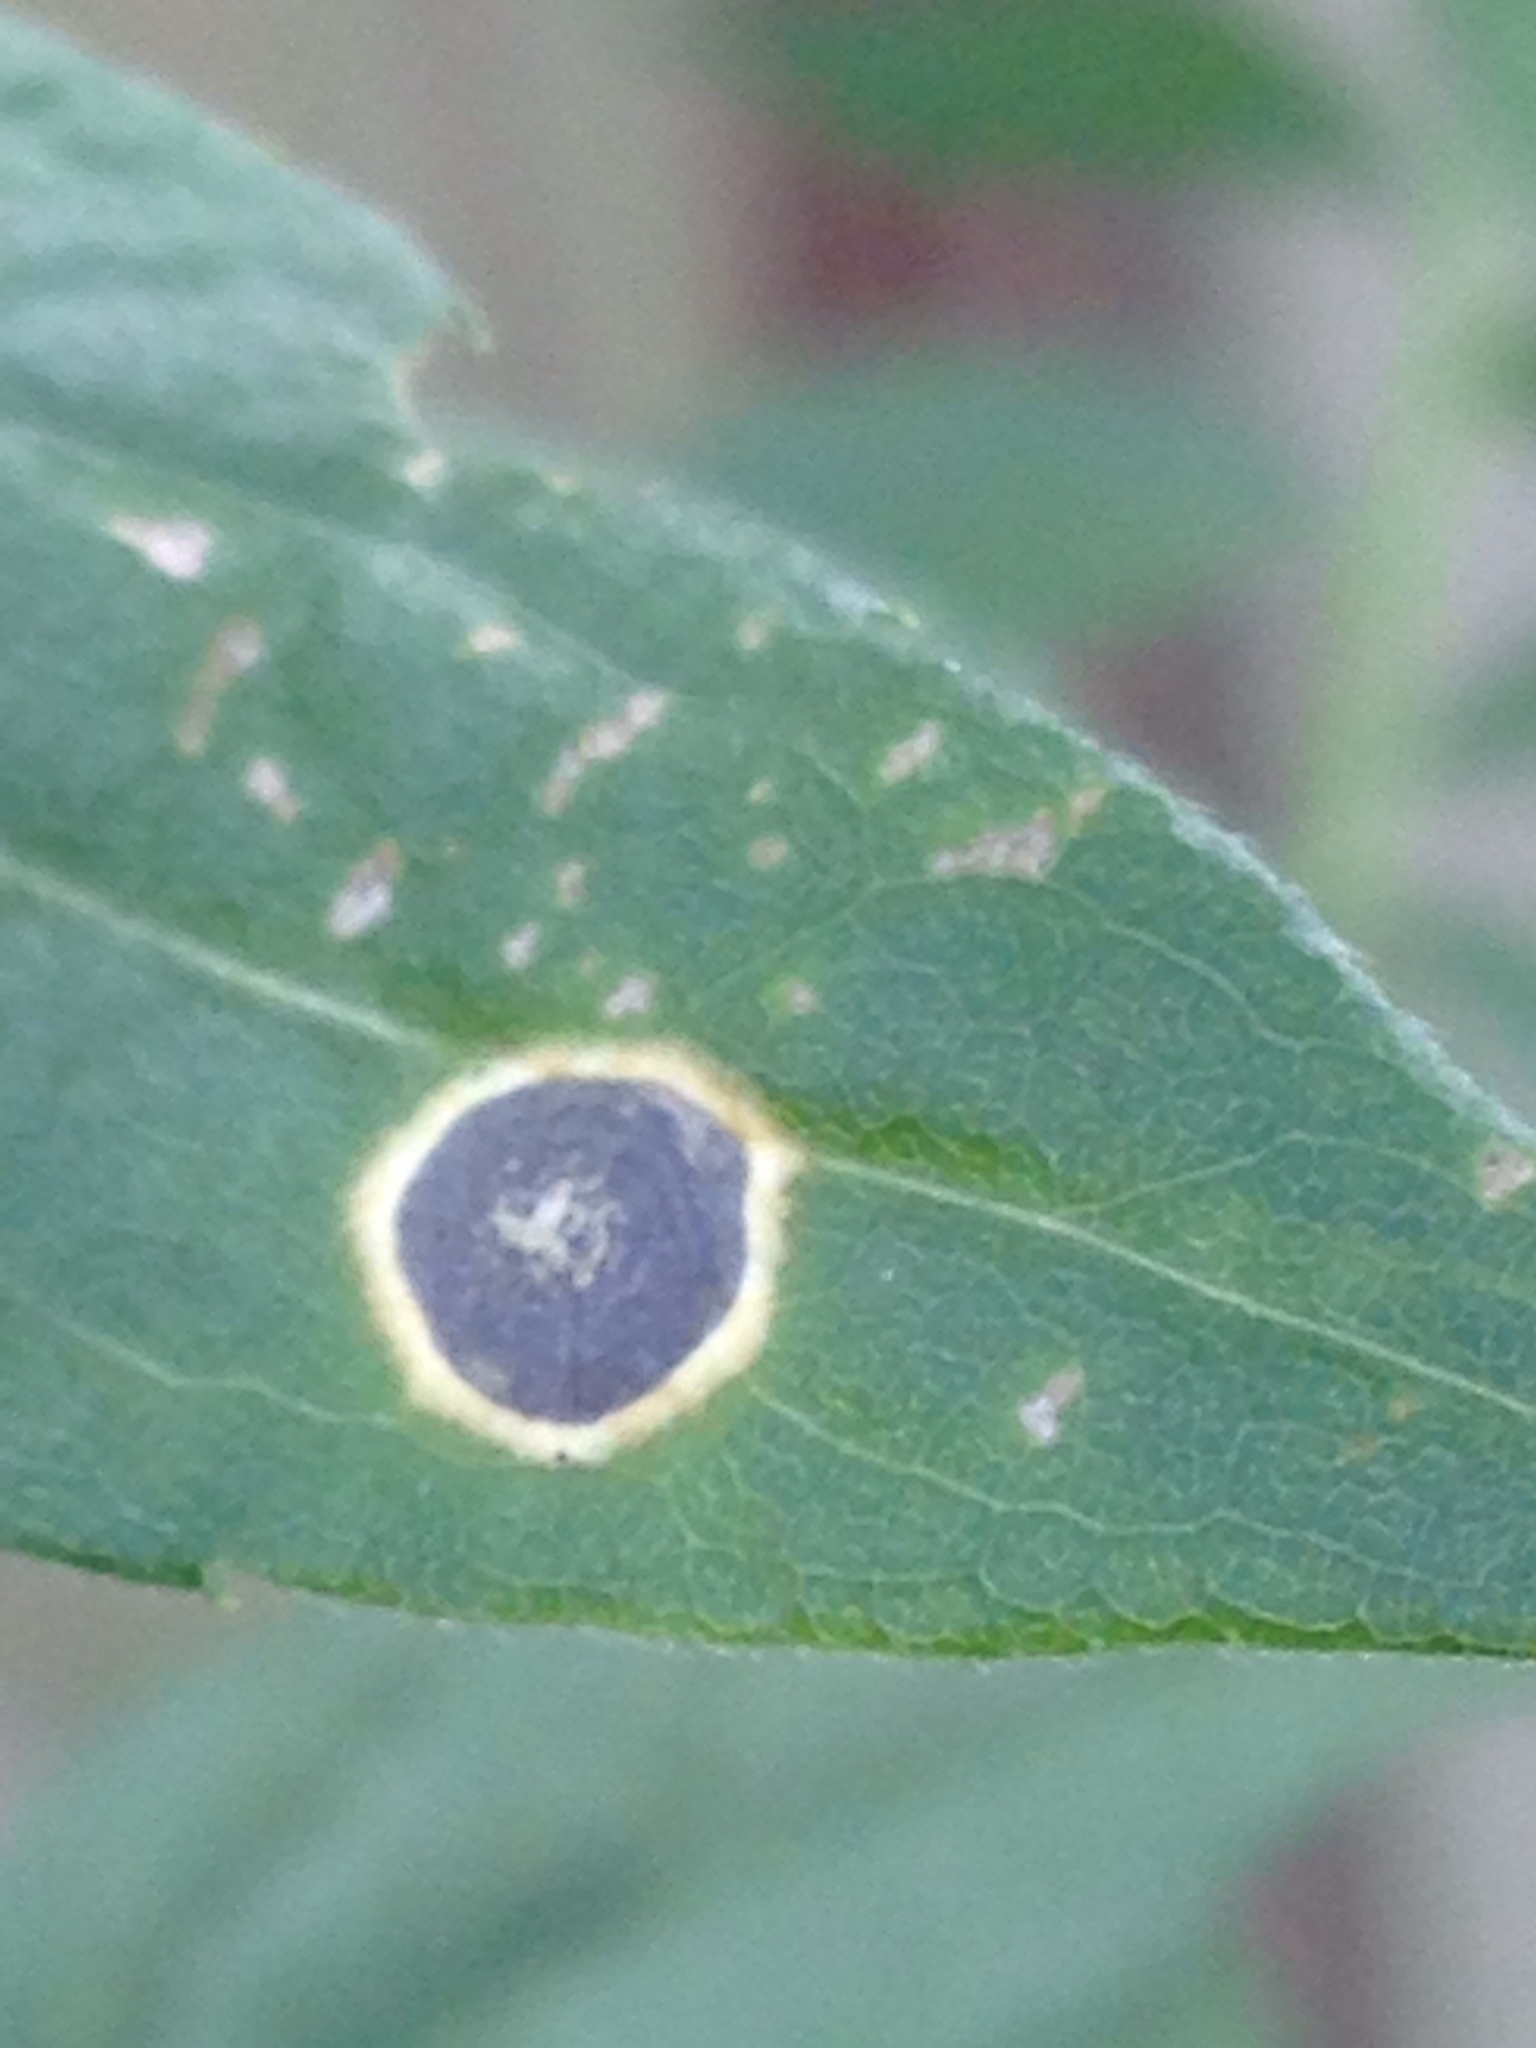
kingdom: Animalia
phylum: Arthropoda
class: Insecta
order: Diptera
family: Cecidomyiidae
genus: Asteromyia
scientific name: Asteromyia carbonifera
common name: Carbonifera goldenrod gall midge
